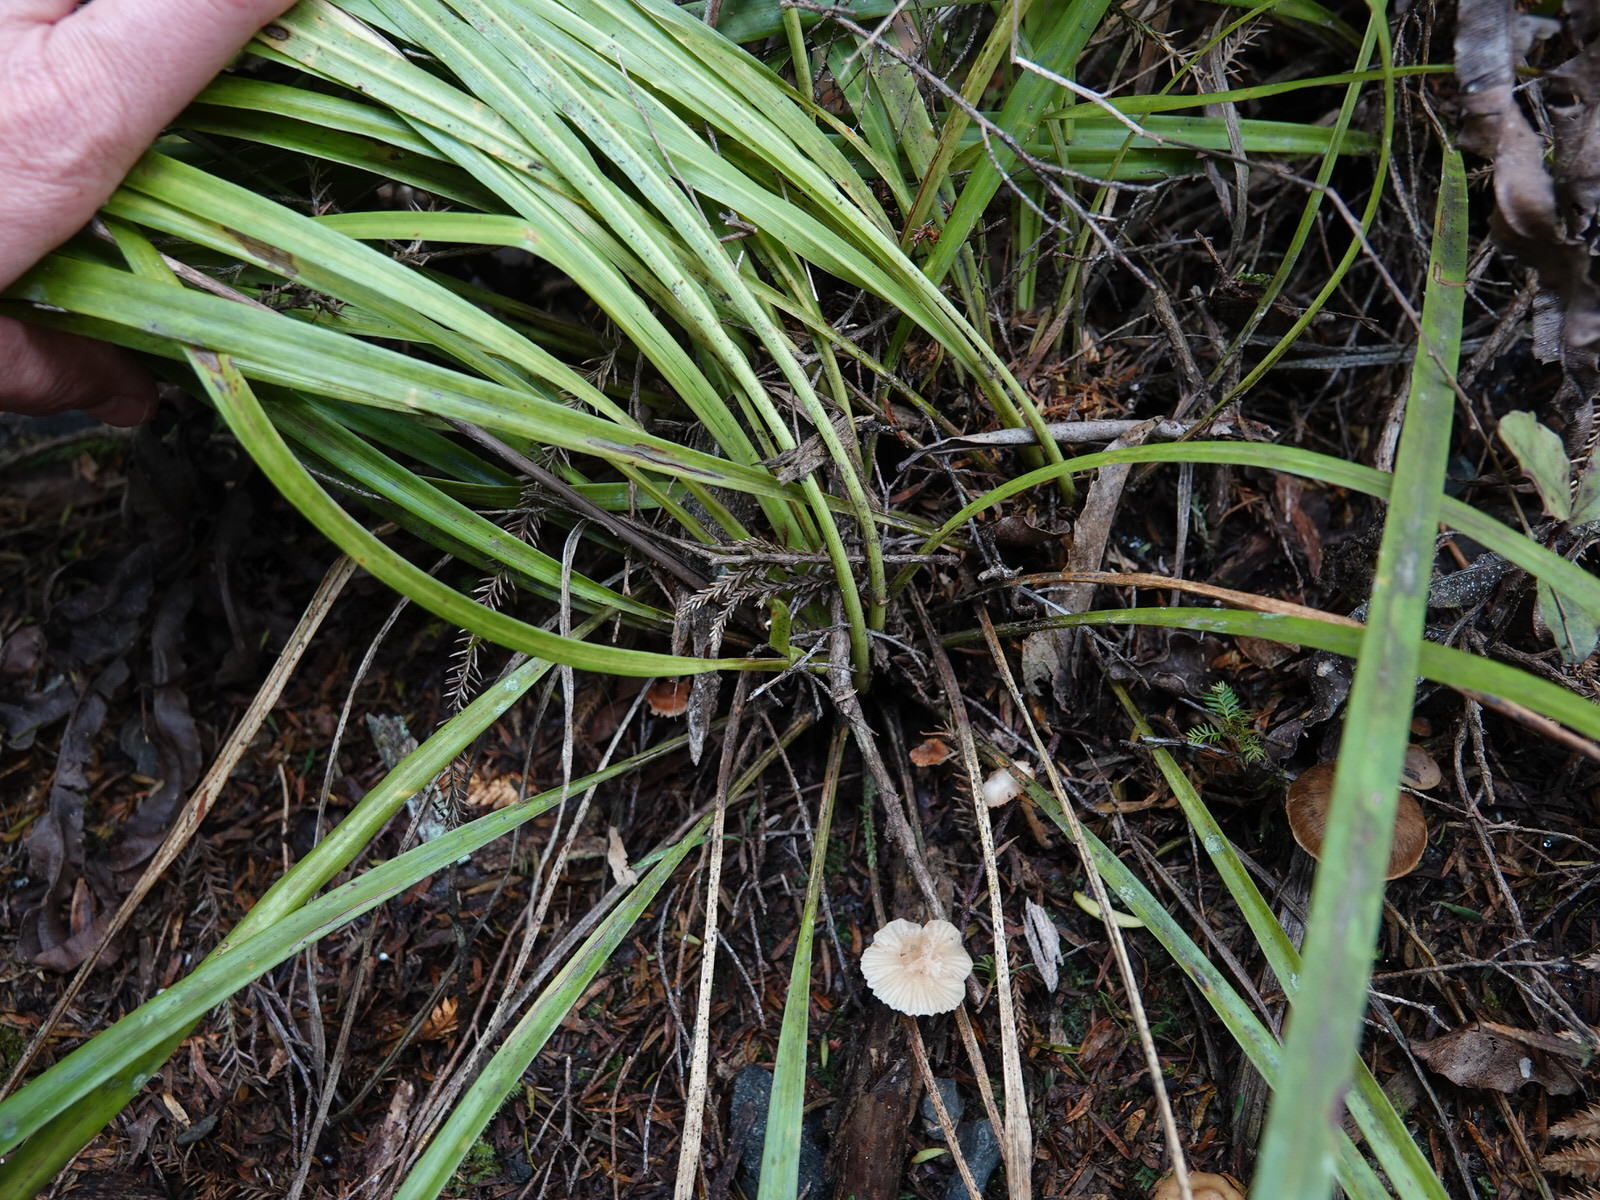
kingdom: Plantae
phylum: Tracheophyta
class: Liliopsida
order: Asparagales
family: Asparagaceae
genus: Cordyline
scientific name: Cordyline pumilio
